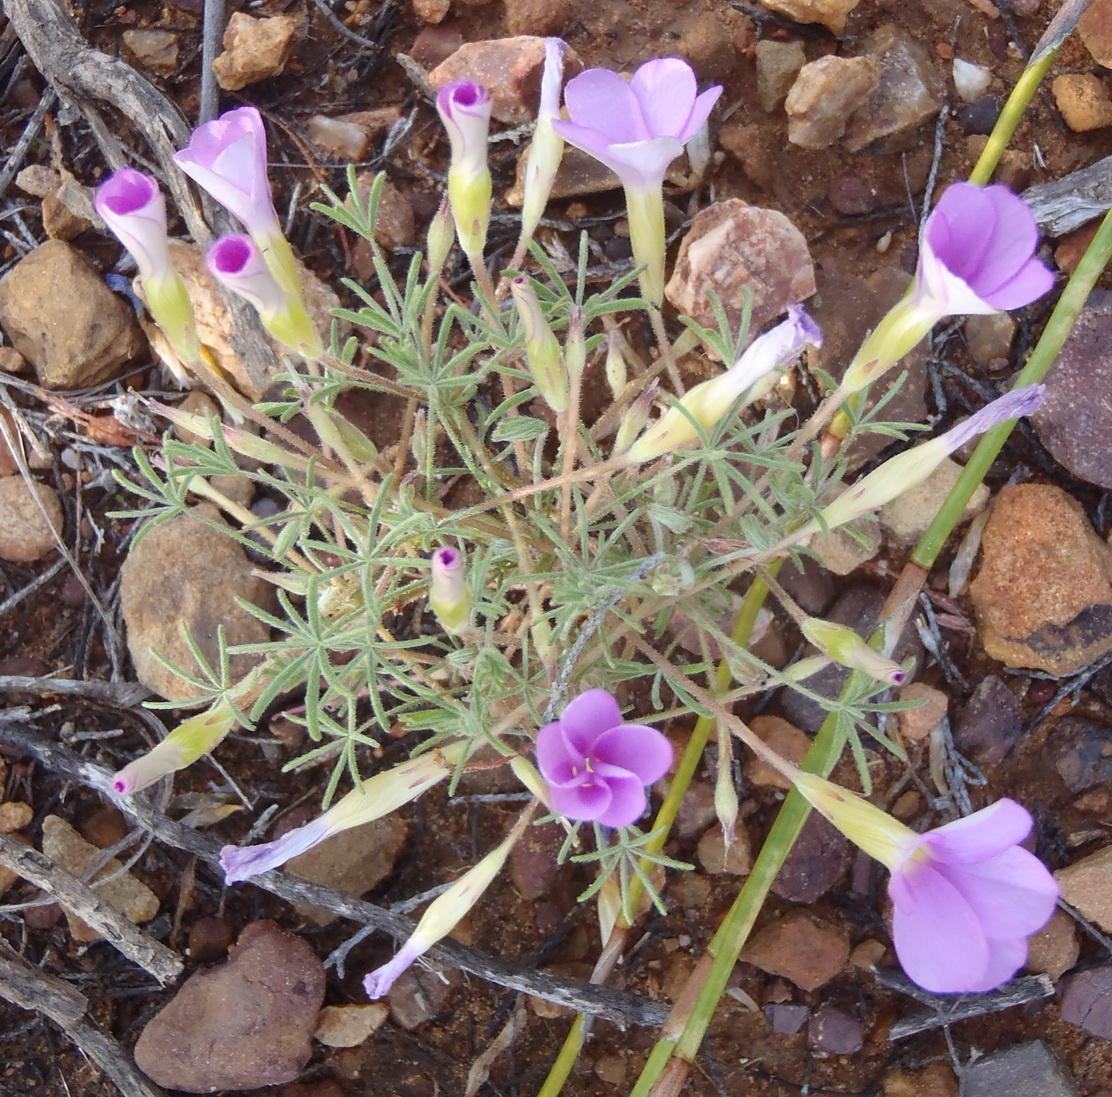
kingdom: Plantae
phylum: Tracheophyta
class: Magnoliopsida
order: Oxalidales
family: Oxalidaceae
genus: Oxalis
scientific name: Oxalis engleriana
